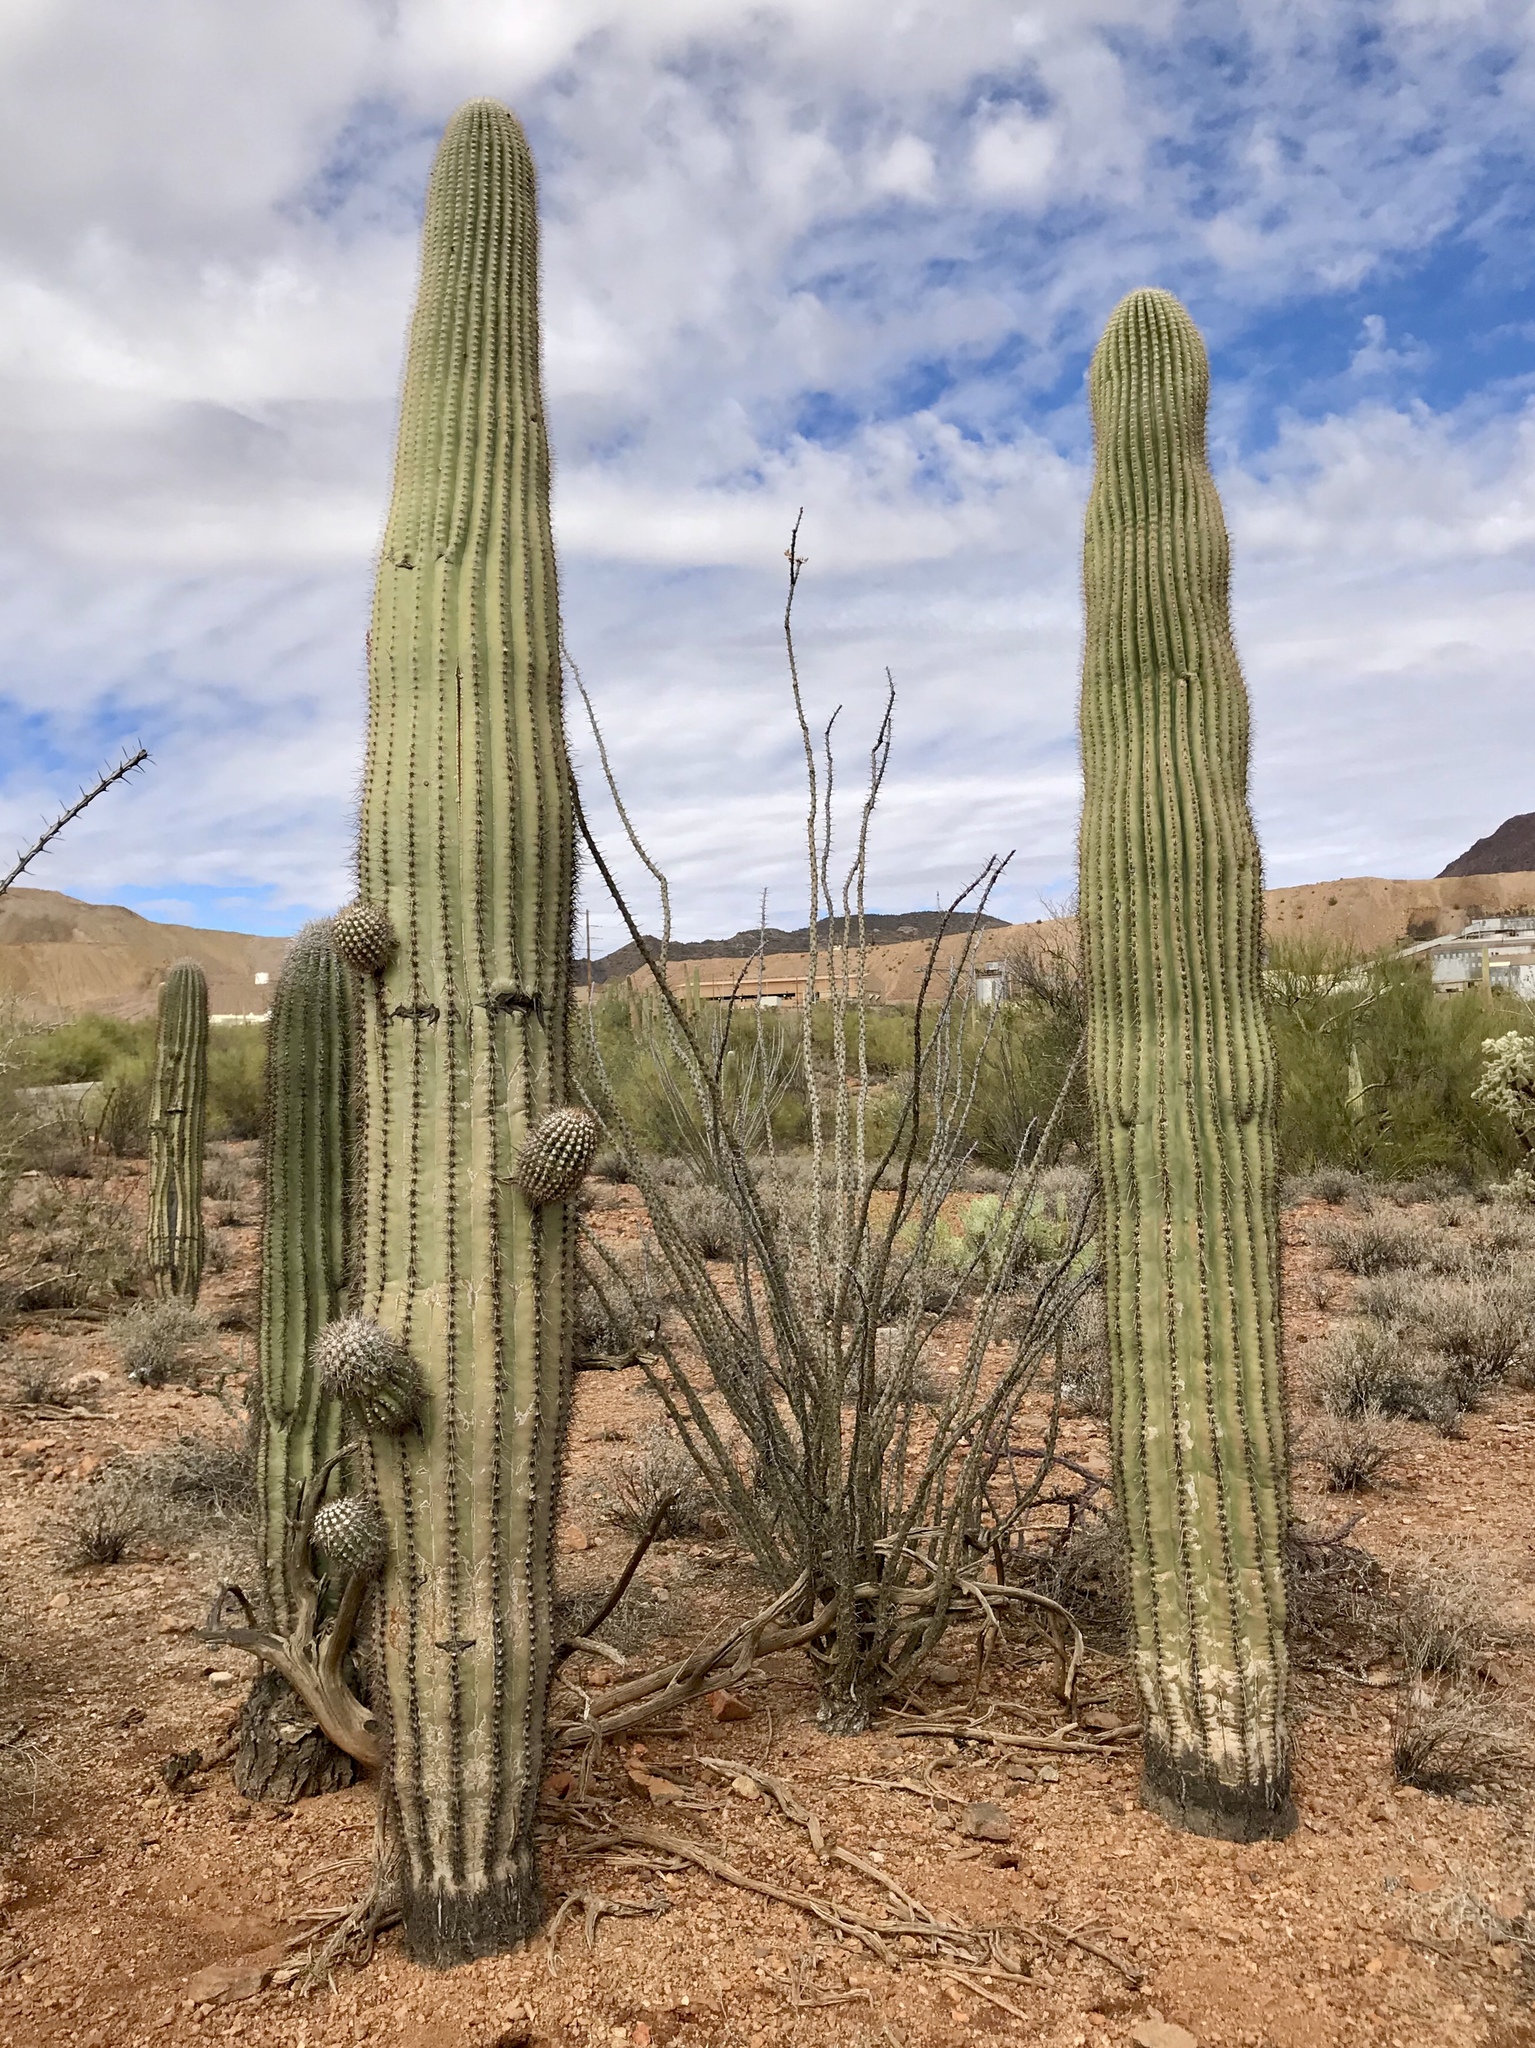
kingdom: Plantae
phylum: Tracheophyta
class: Magnoliopsida
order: Caryophyllales
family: Cactaceae
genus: Carnegiea
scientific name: Carnegiea gigantea
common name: Saguaro
